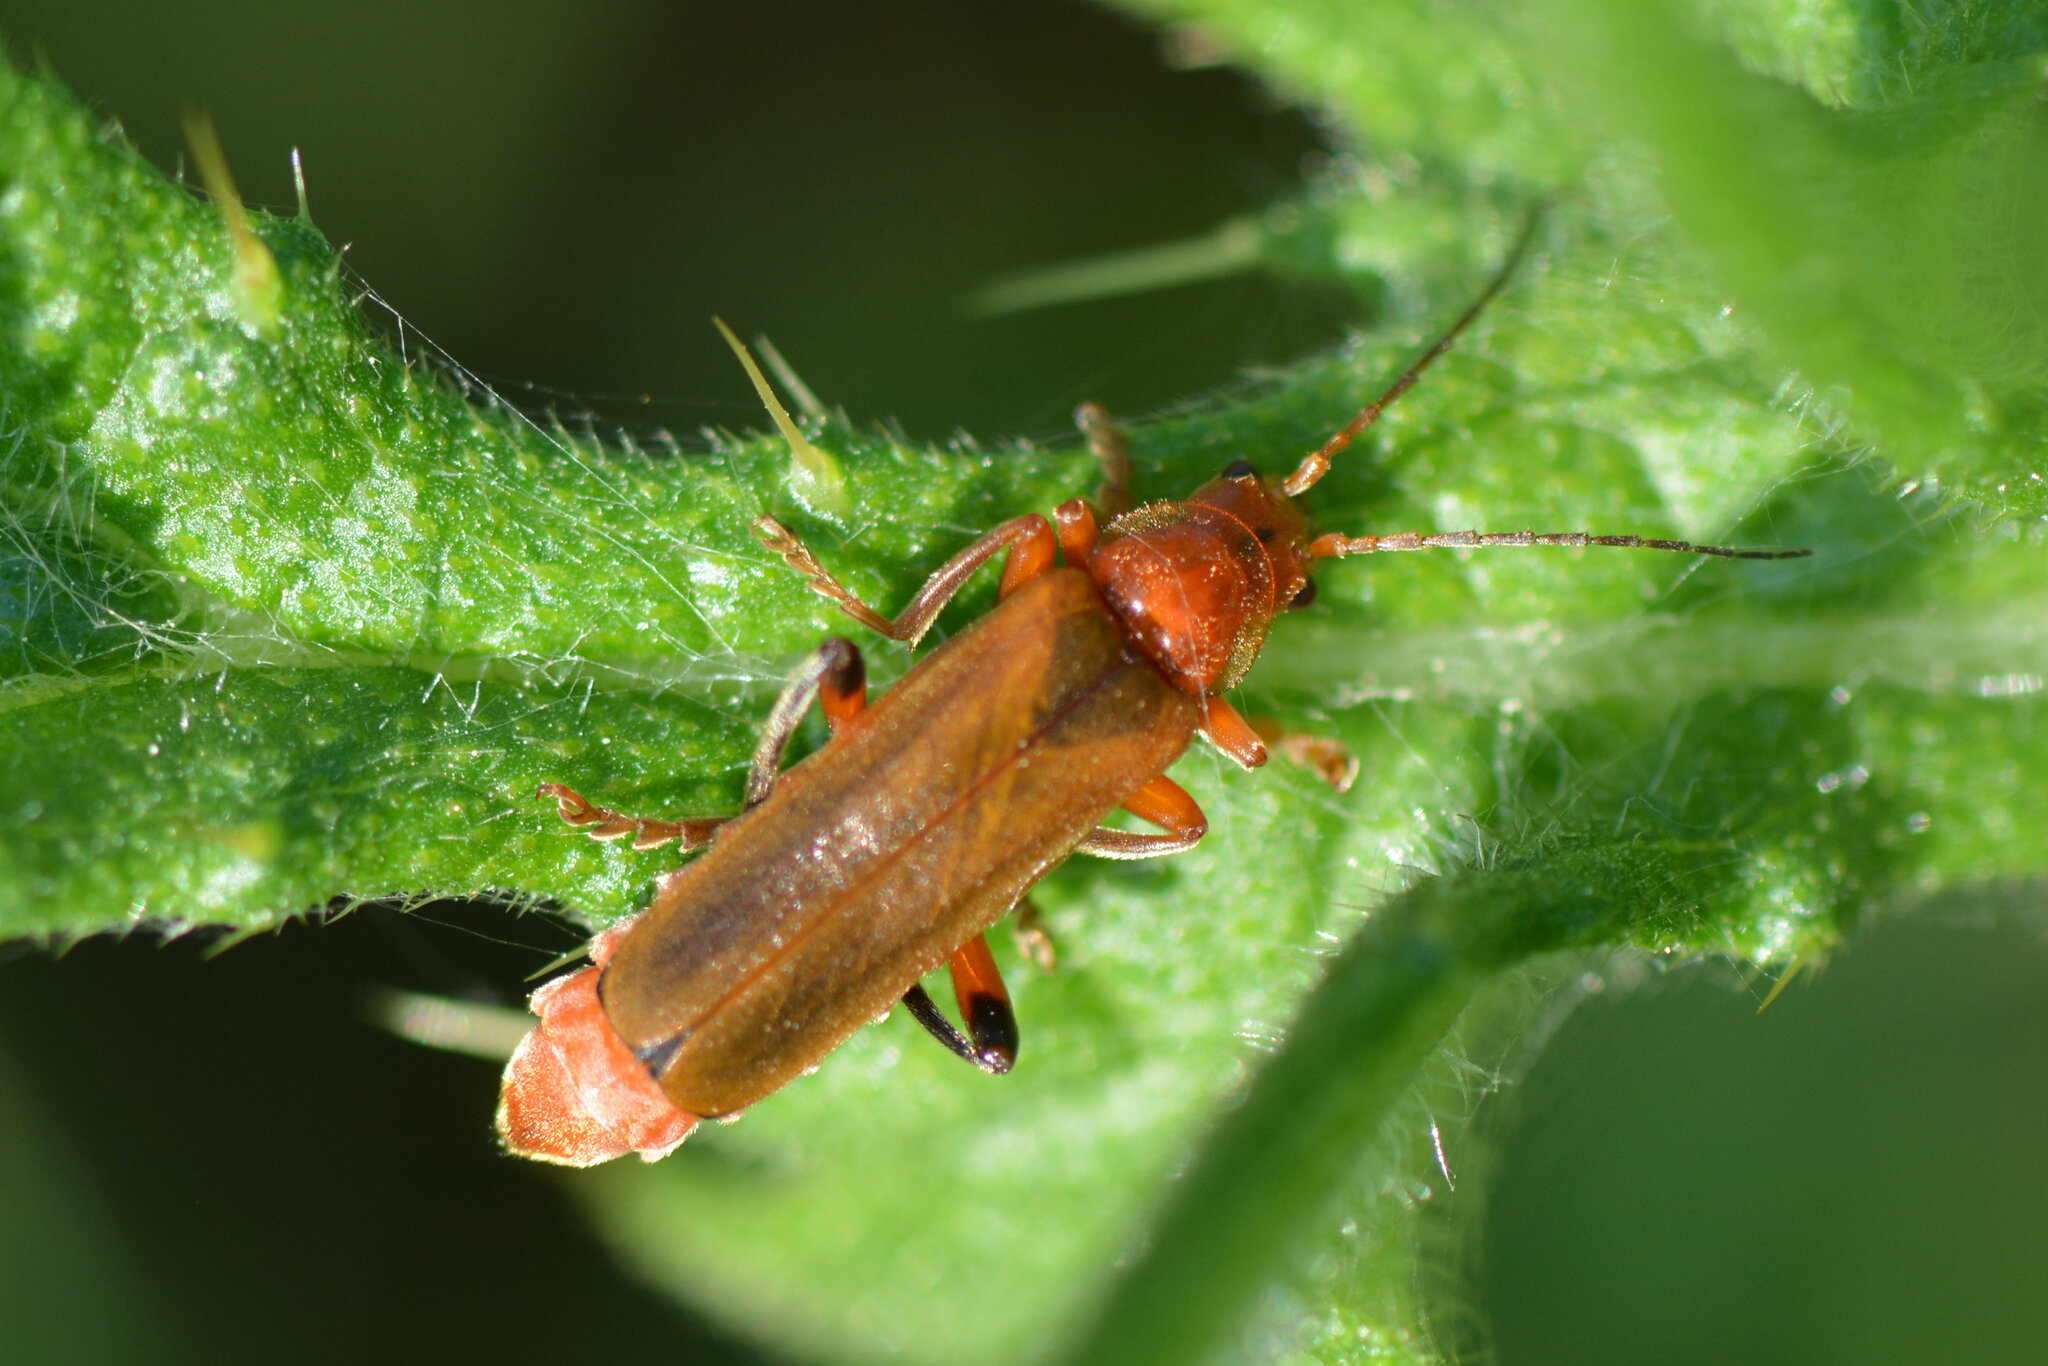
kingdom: Animalia
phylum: Arthropoda
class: Insecta
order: Coleoptera
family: Cantharidae
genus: Cantharis
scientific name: Cantharis livida
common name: Livid soldier beetle
